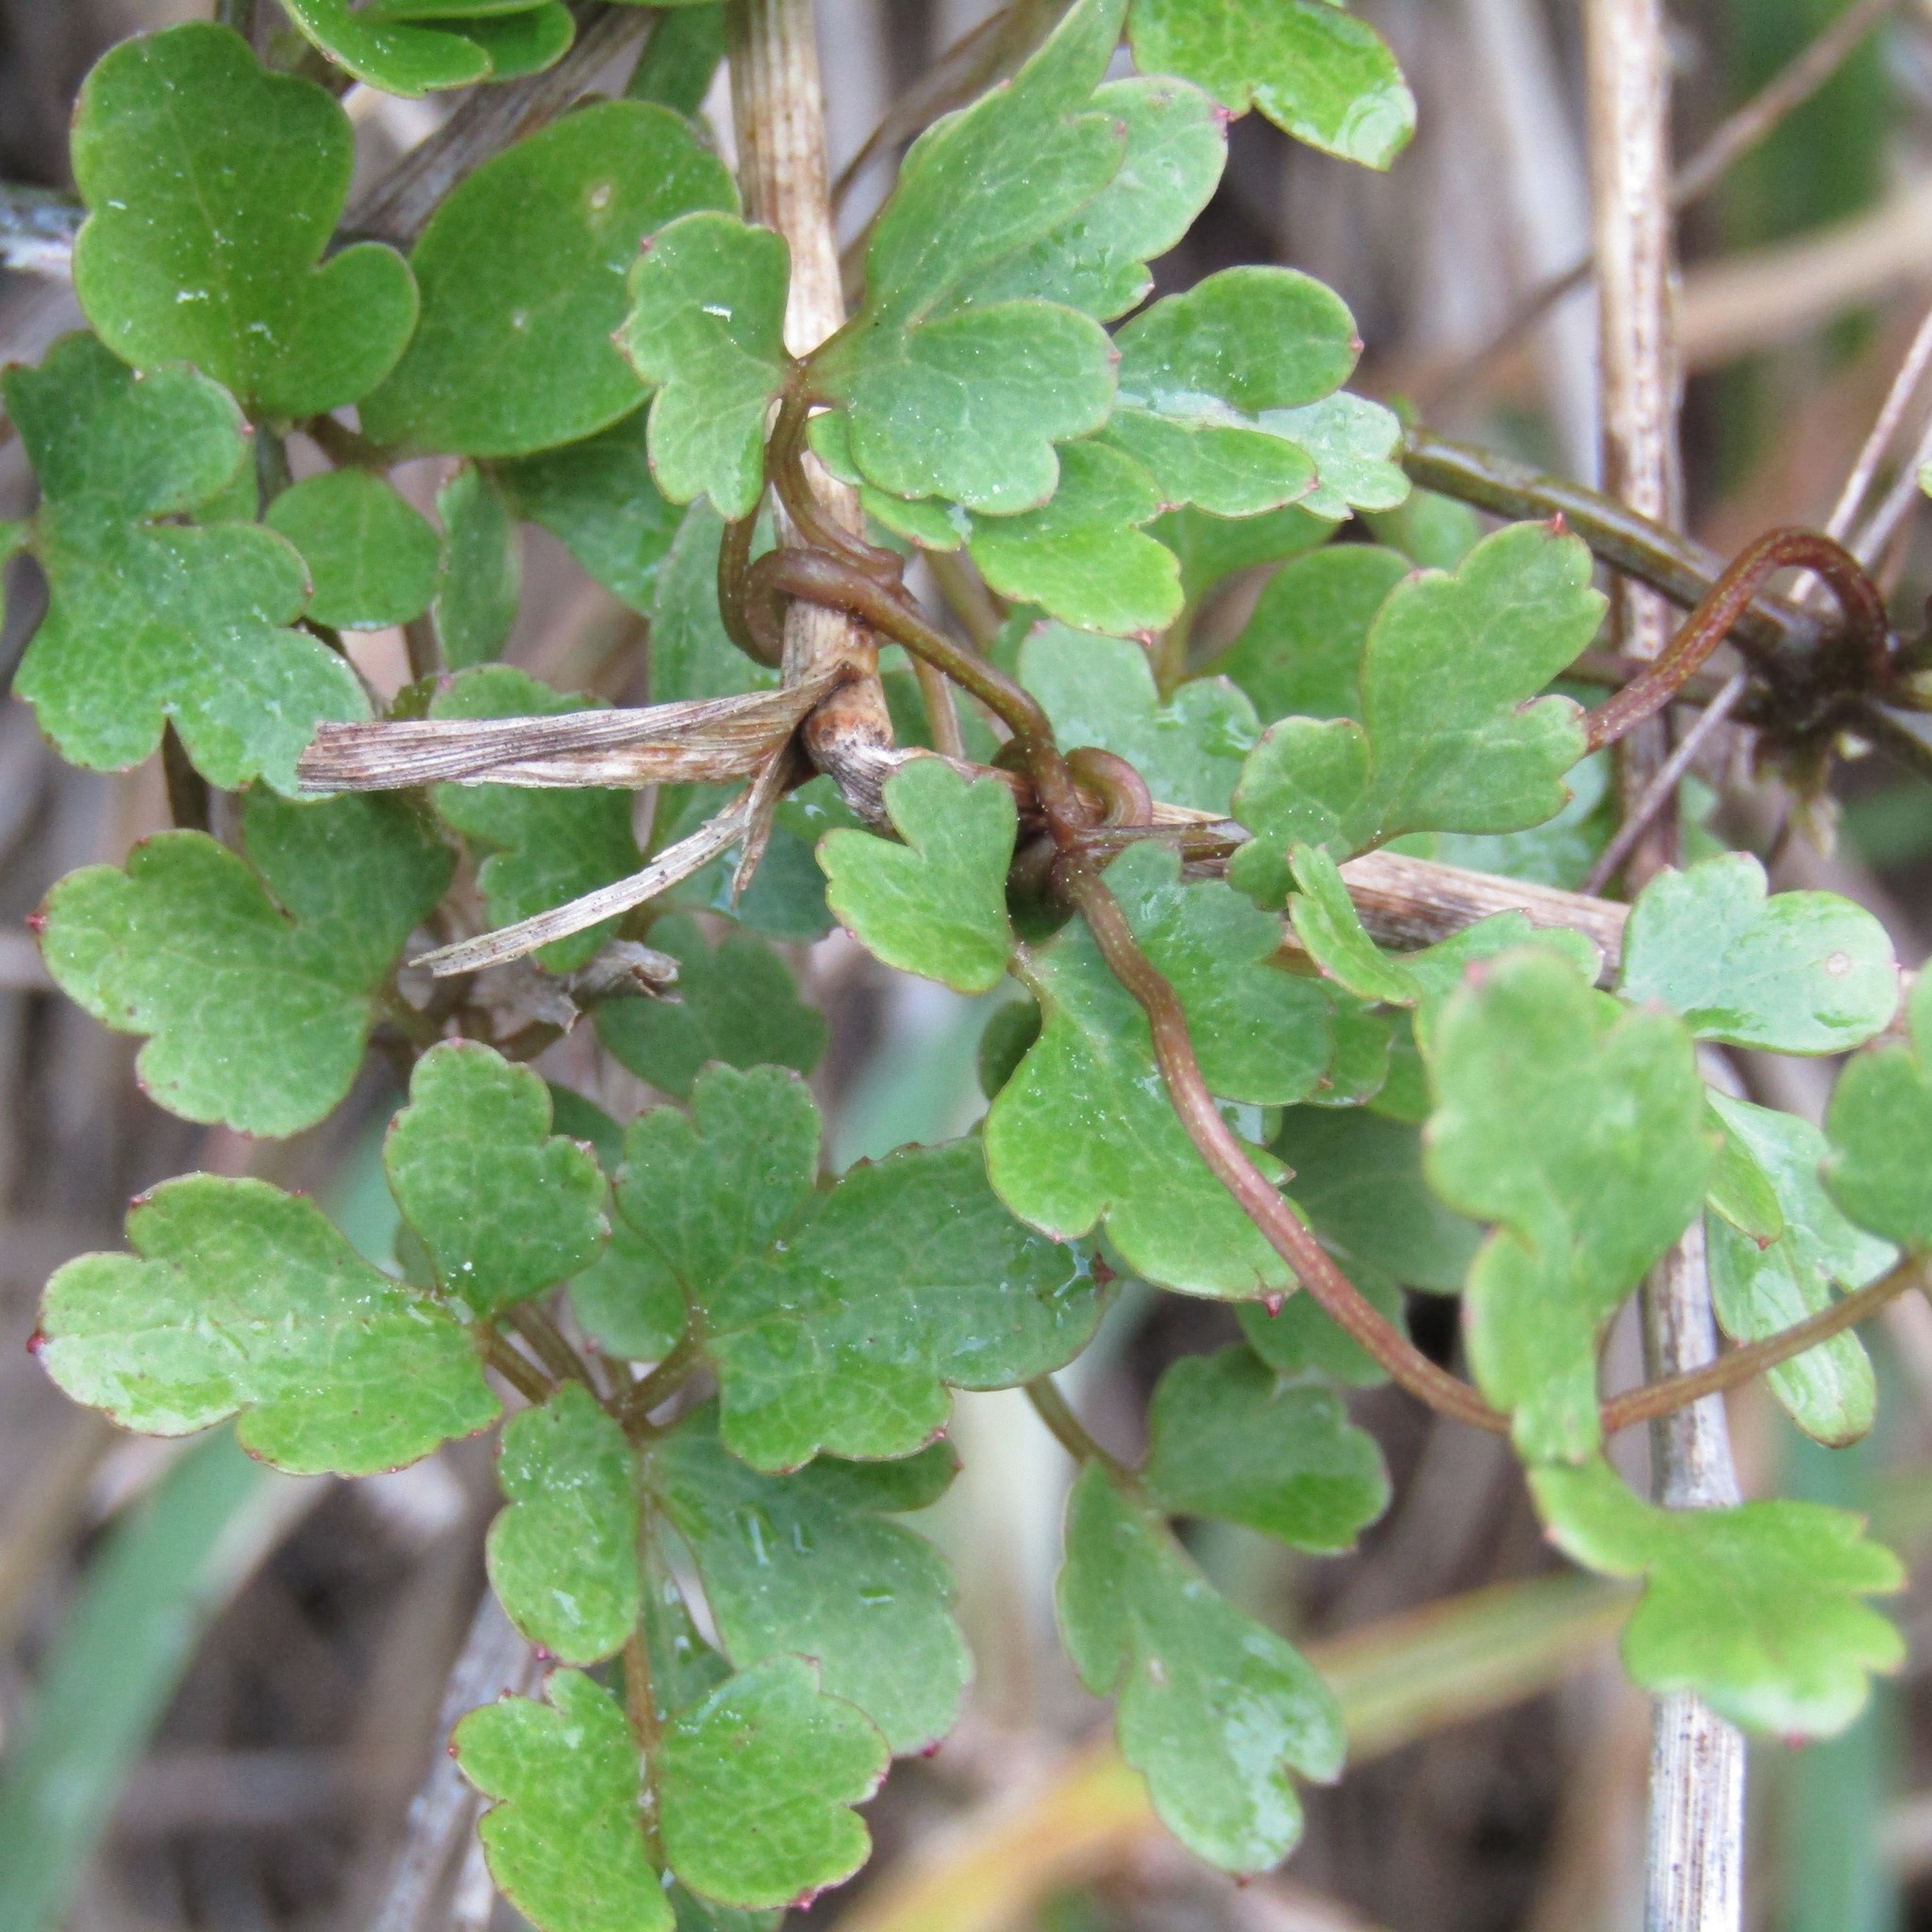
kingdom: Plantae
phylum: Tracheophyta
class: Magnoliopsida
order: Ranunculales
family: Ranunculaceae
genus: Clematis
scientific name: Clematis forsteri
